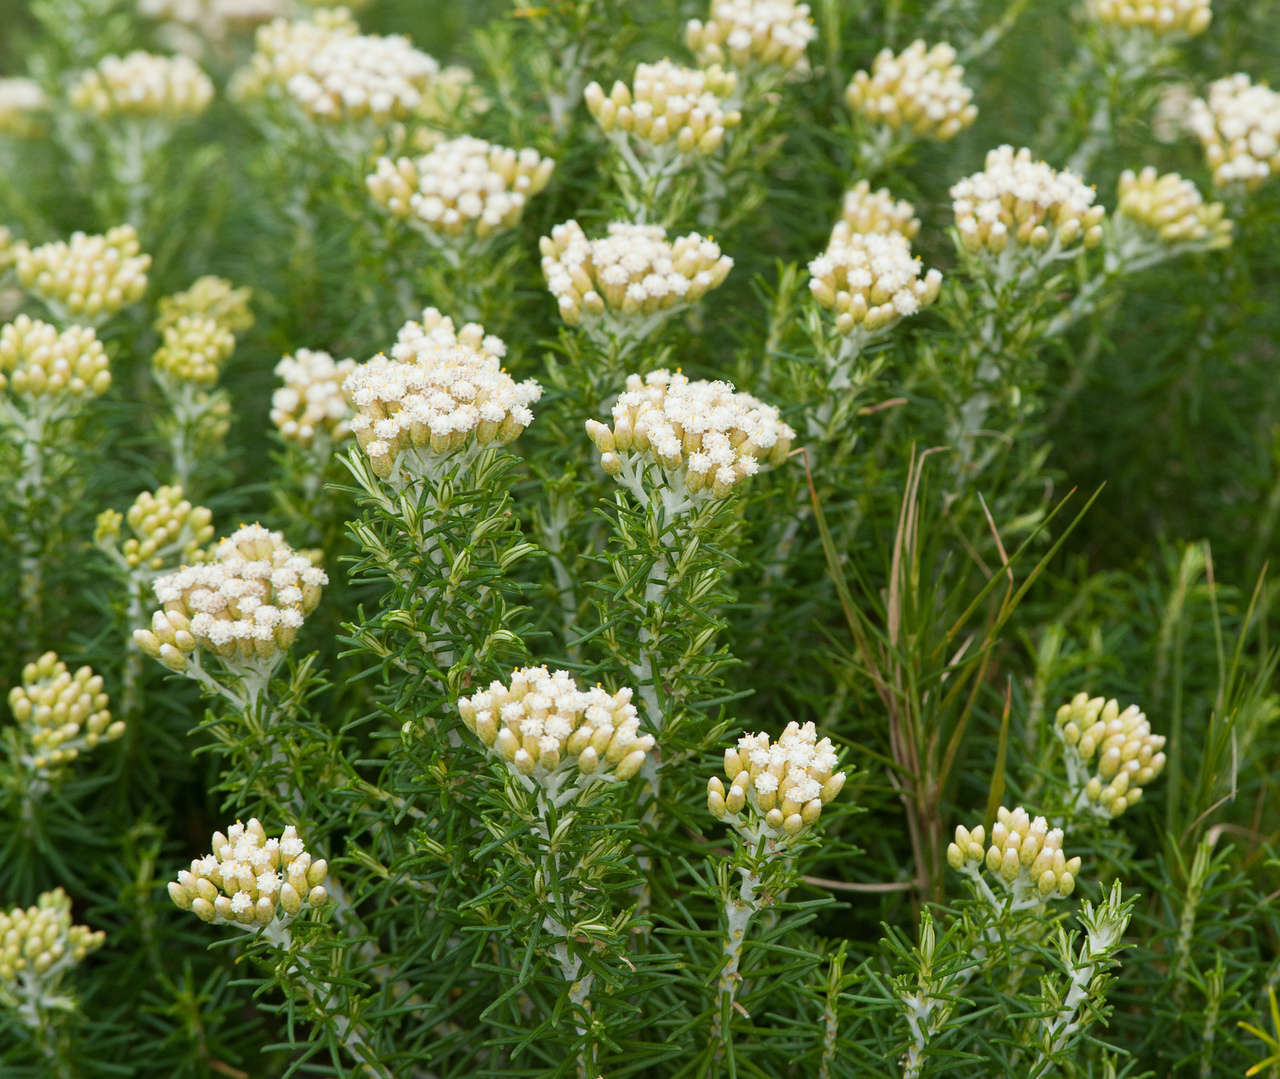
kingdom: Plantae
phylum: Tracheophyta
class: Magnoliopsida
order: Asterales
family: Asteraceae
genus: Ozothamnus
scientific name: Ozothamnus cinereus
